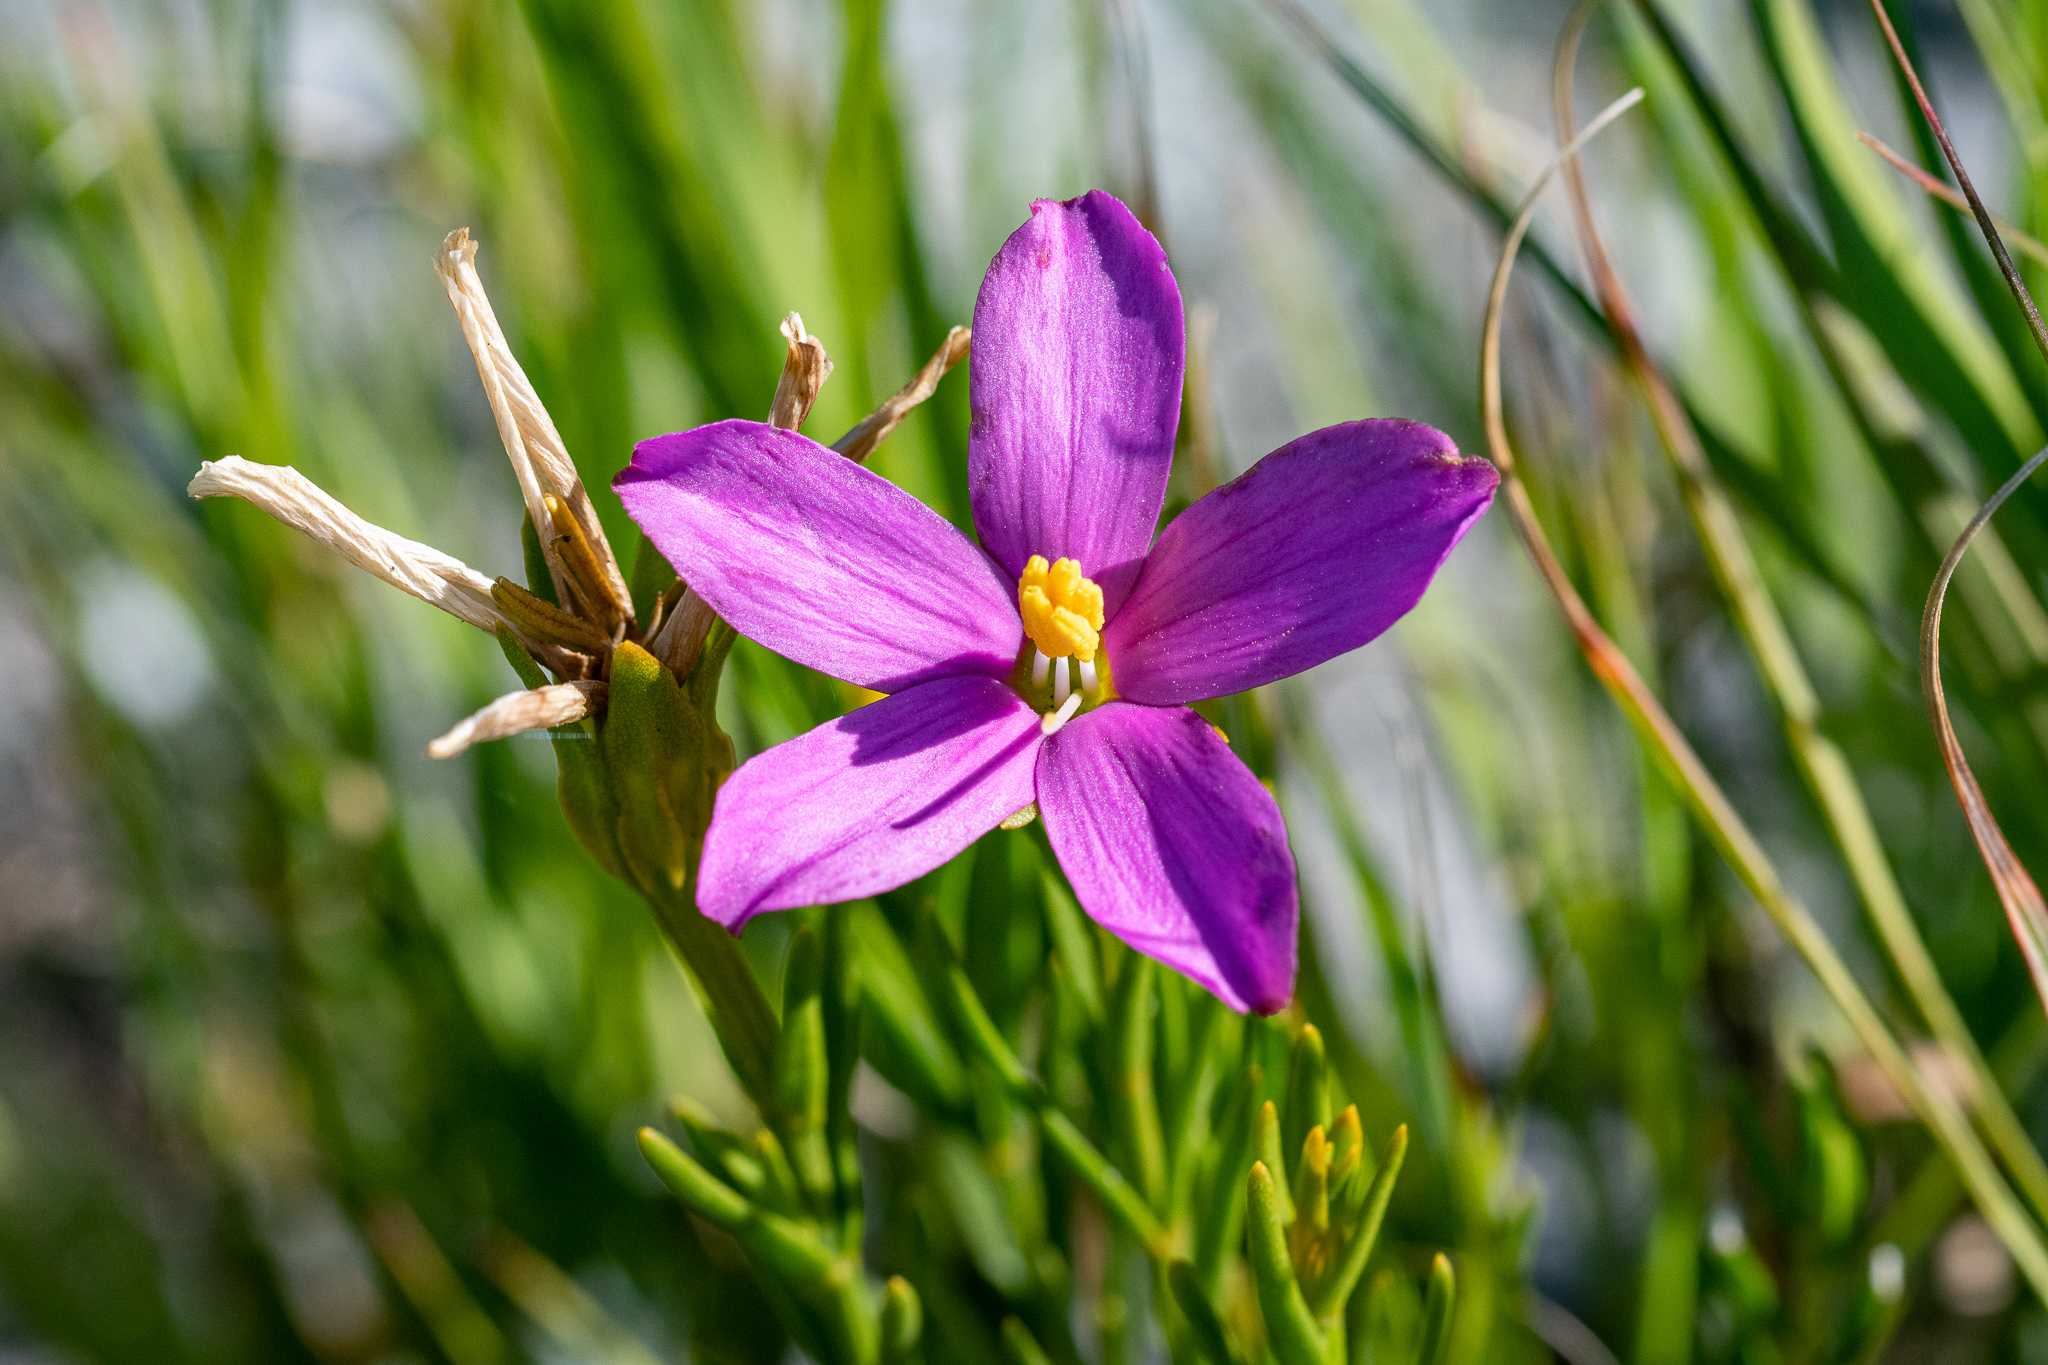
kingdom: Plantae
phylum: Tracheophyta
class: Magnoliopsida
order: Gentianales
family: Gentianaceae
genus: Chironia
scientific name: Chironia tetragona
